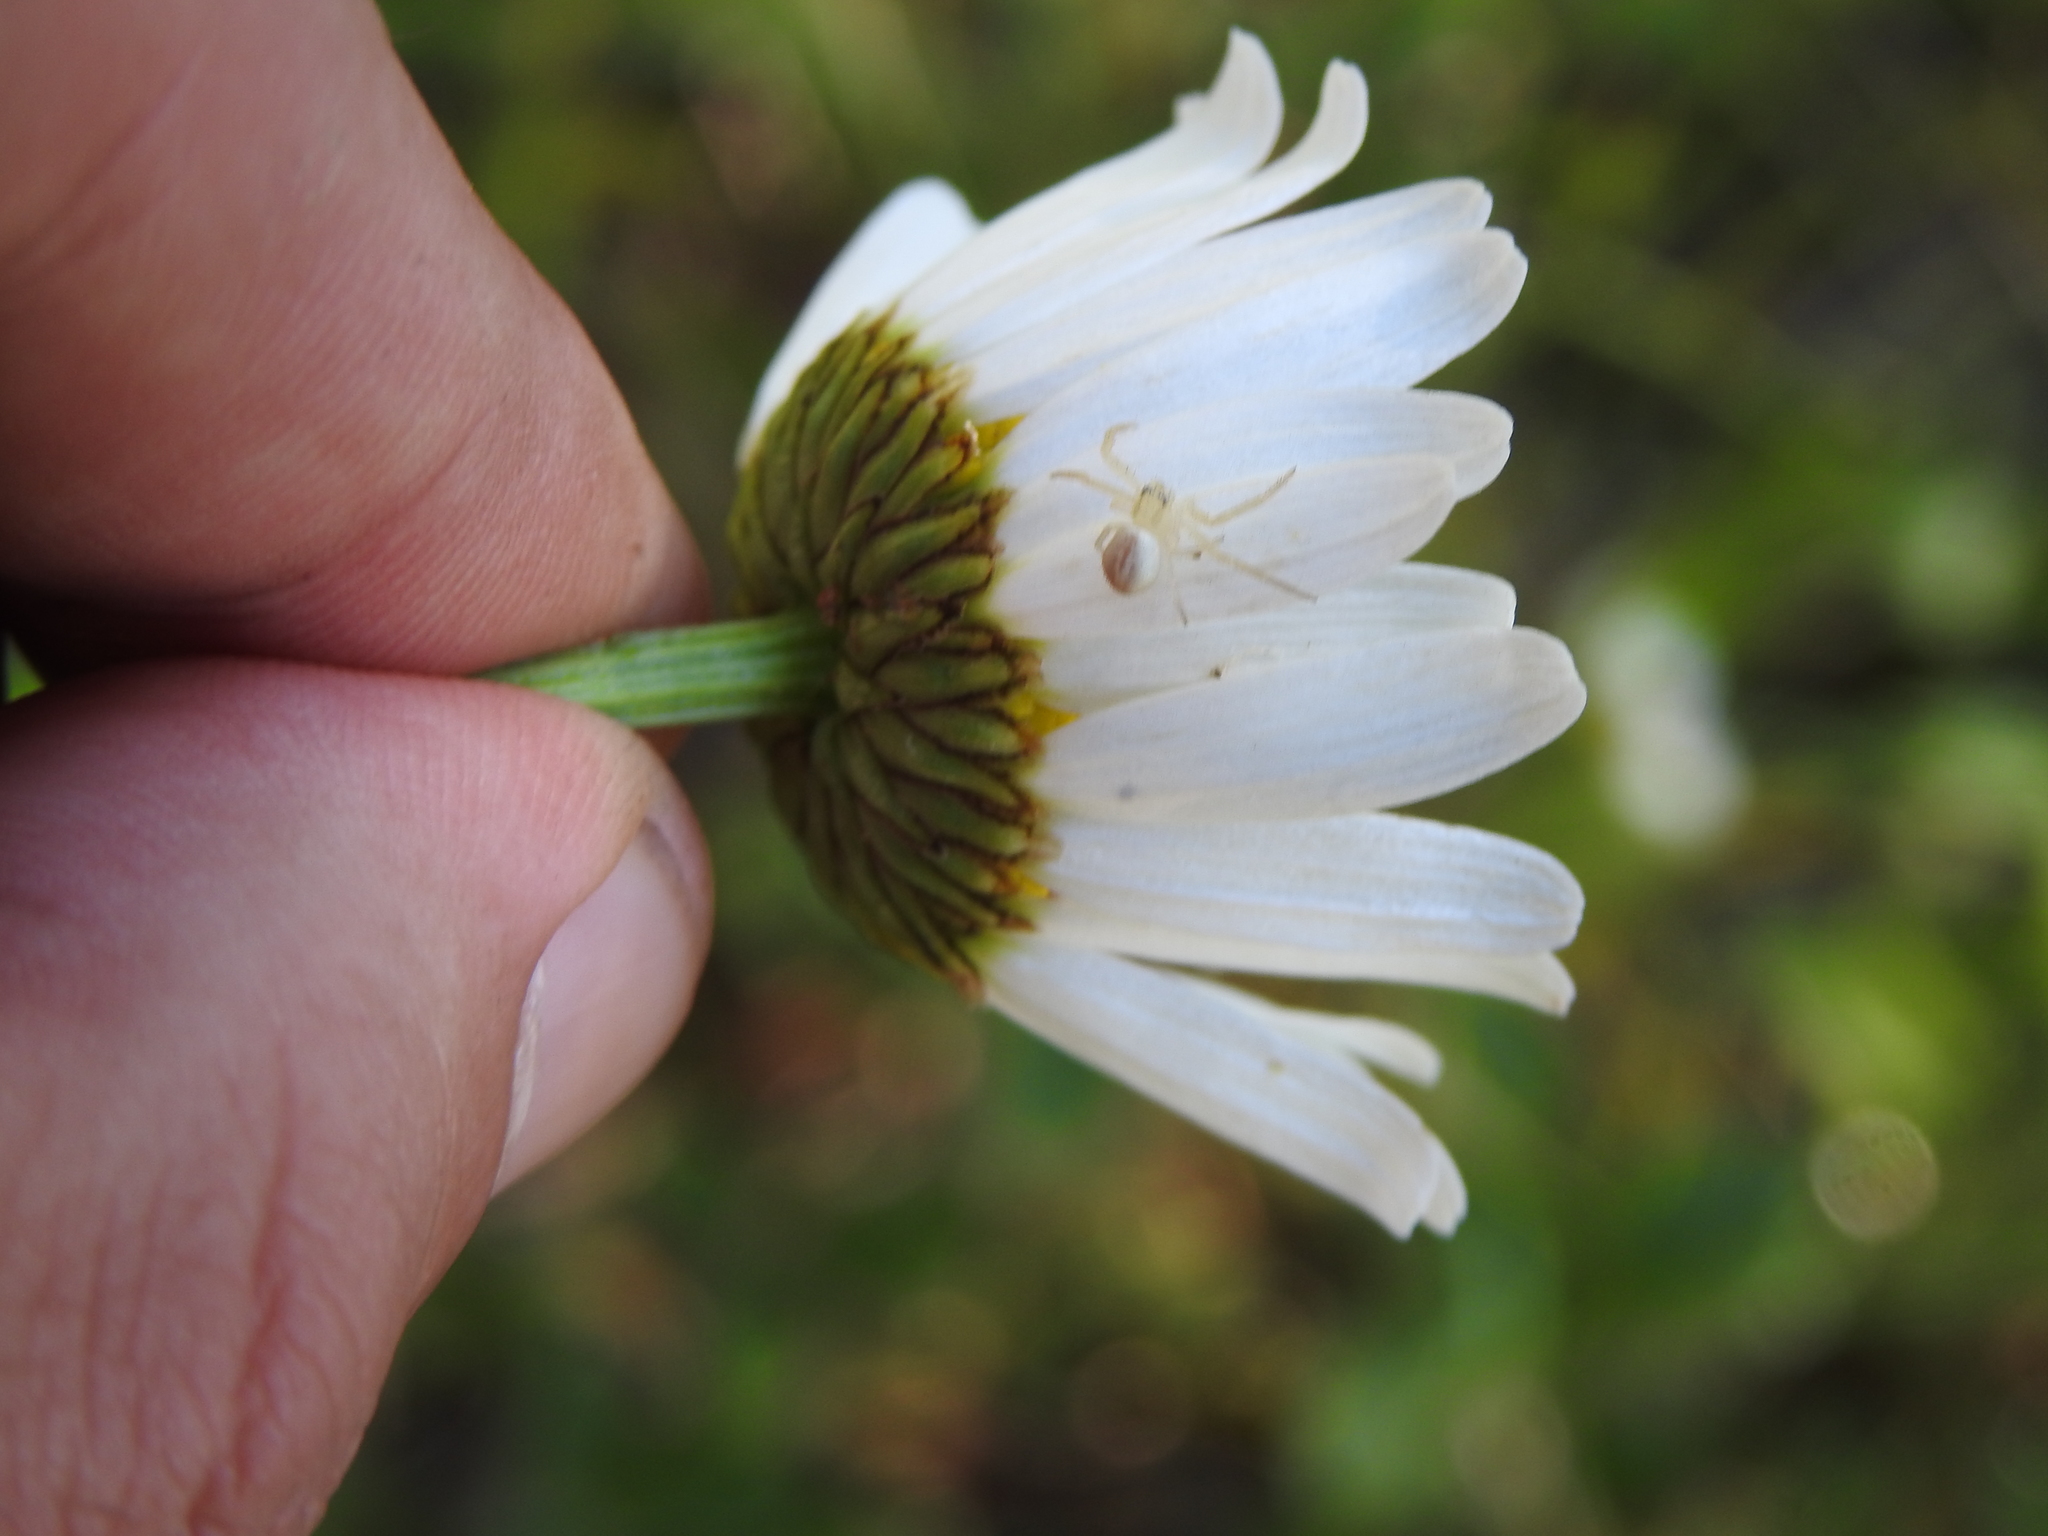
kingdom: Animalia
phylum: Arthropoda
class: Arachnida
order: Araneae
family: Thomisidae
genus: Misumenops
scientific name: Misumenops
